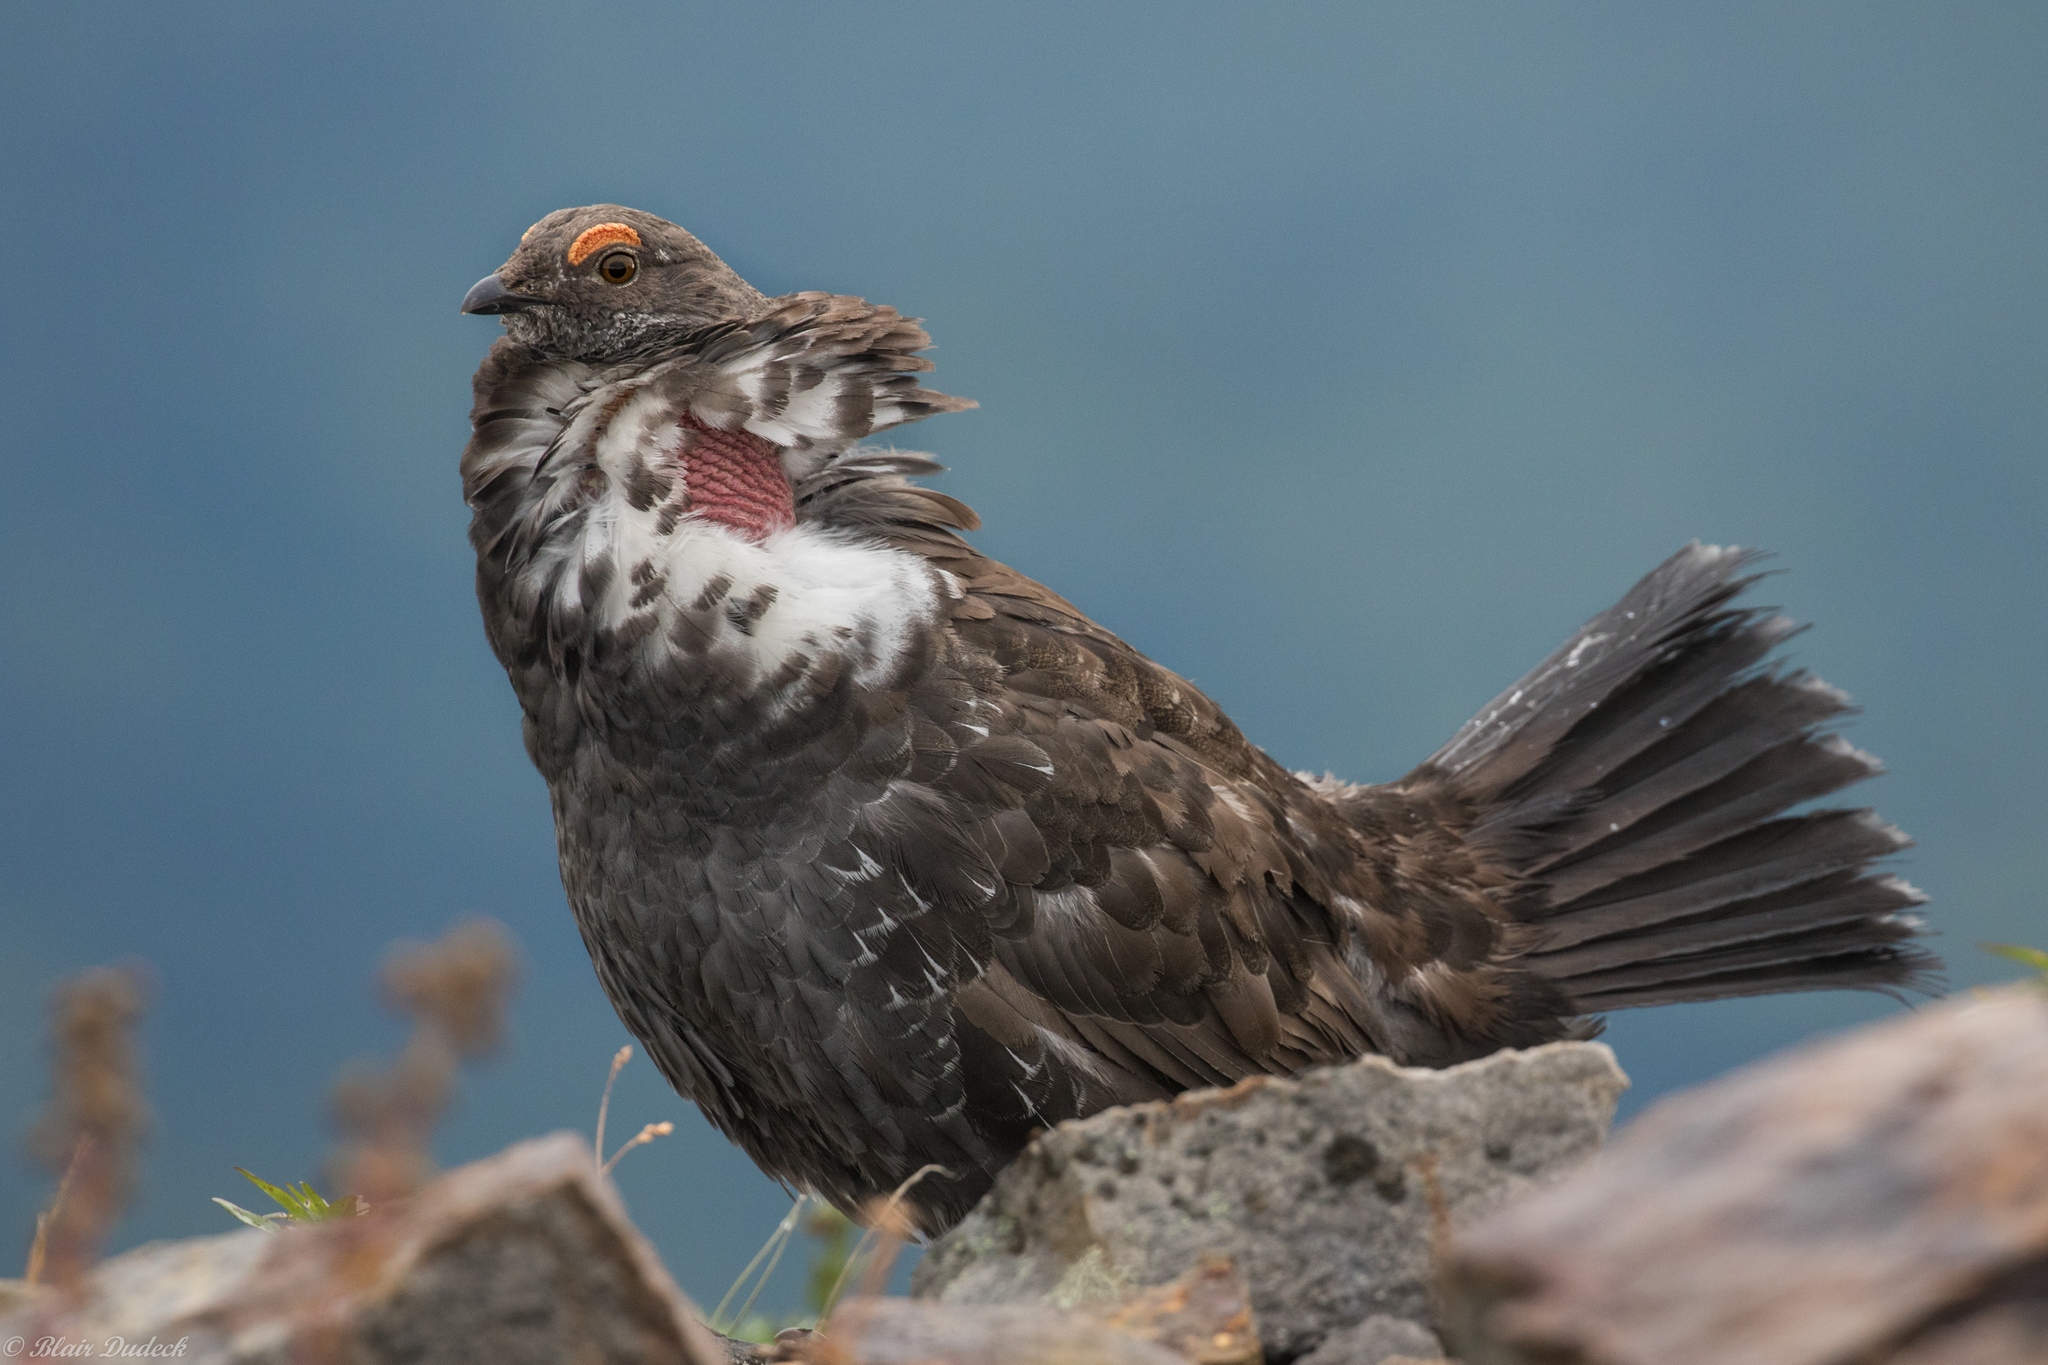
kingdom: Animalia
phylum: Chordata
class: Aves
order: Galliformes
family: Phasianidae
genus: Dendragapus
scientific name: Dendragapus obscurus
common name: Dusky grouse
